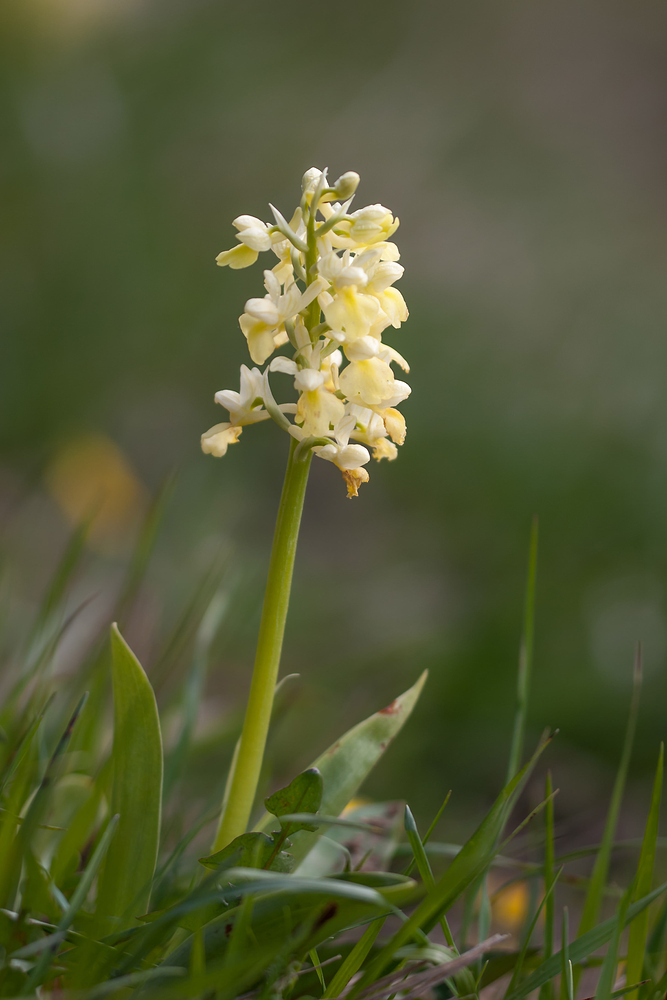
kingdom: Plantae
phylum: Tracheophyta
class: Liliopsida
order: Asparagales
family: Orchidaceae
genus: Orchis
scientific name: Orchis pallens
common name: Pale-flowered orchid
